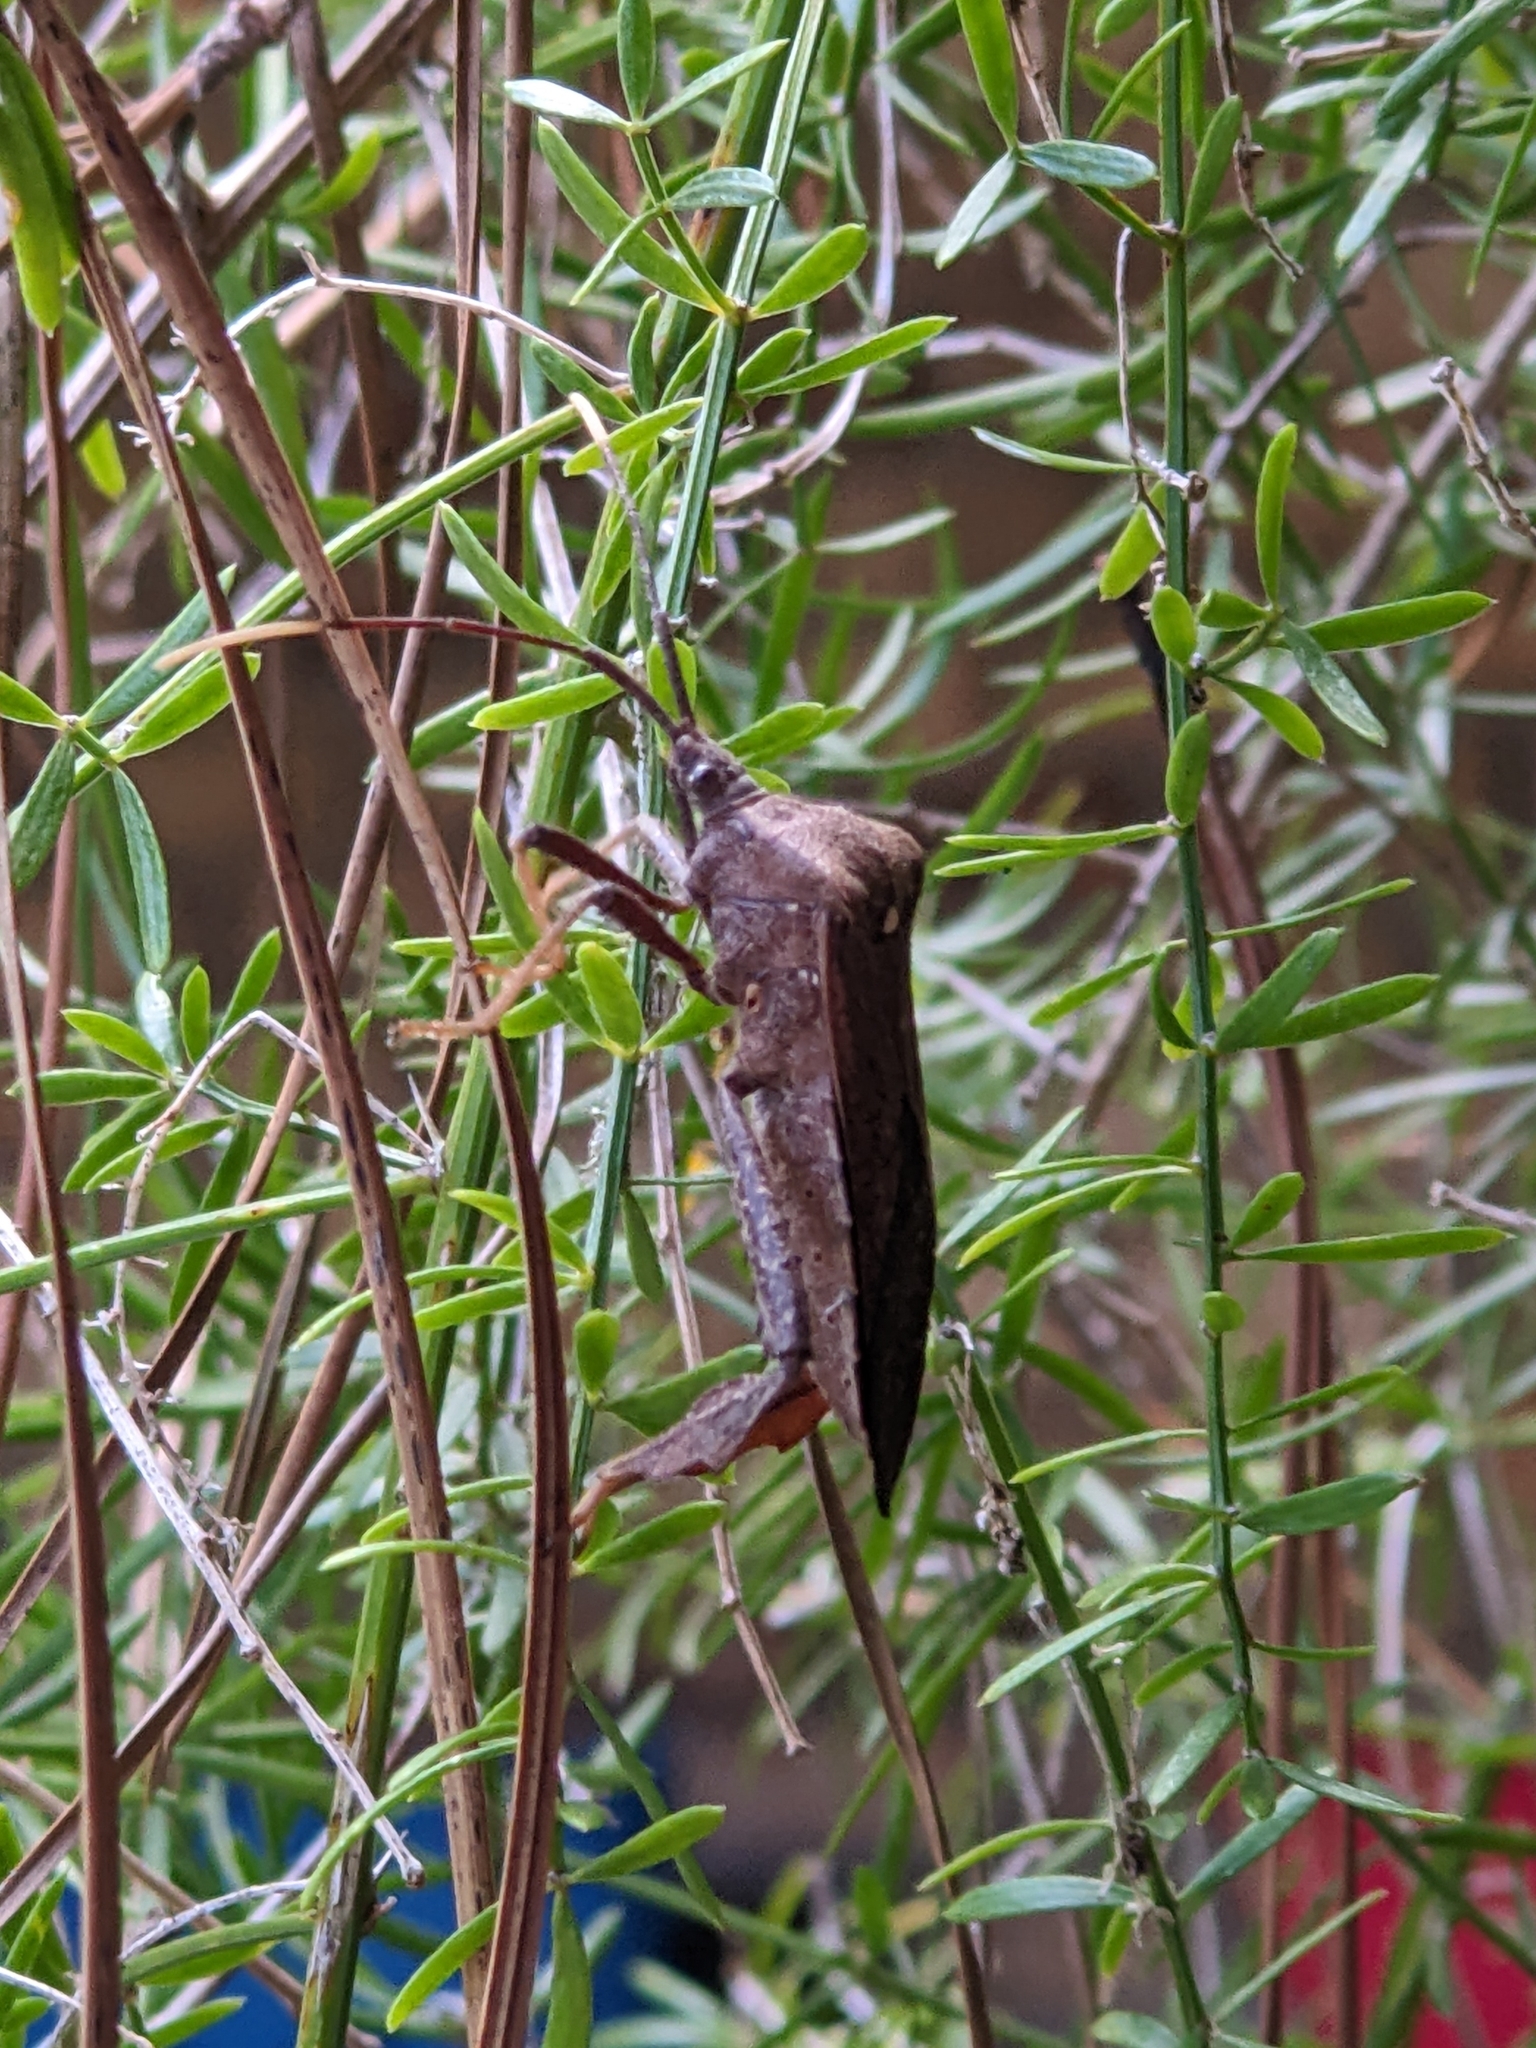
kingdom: Animalia
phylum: Arthropoda
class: Insecta
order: Hemiptera
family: Coreidae
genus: Acanthocephala
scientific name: Acanthocephala terminalis
